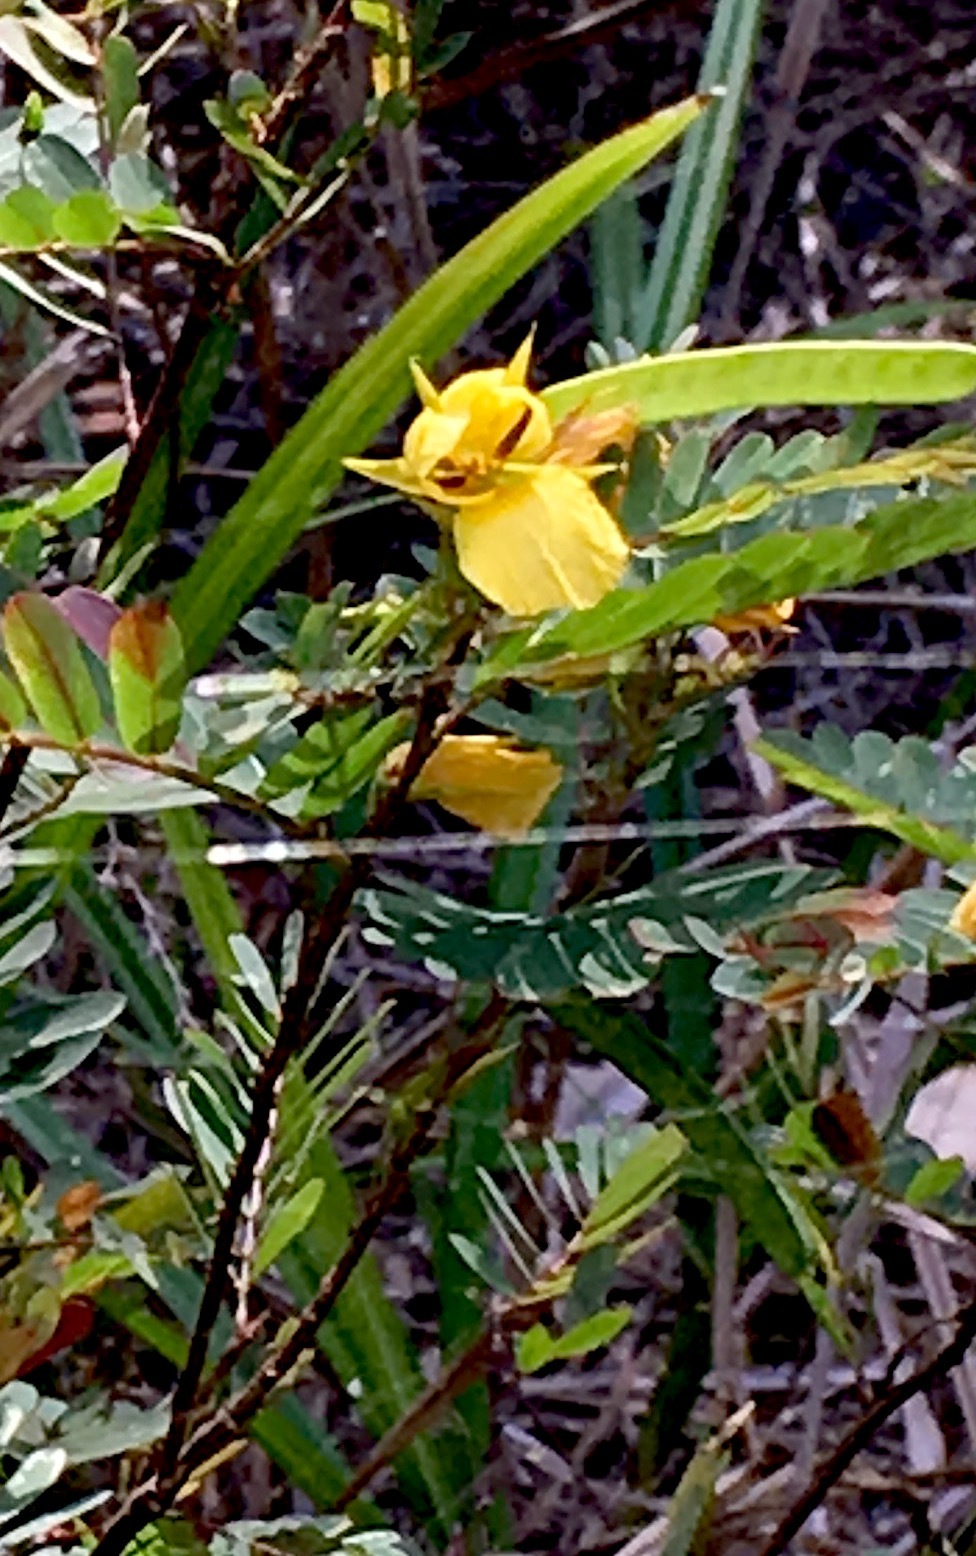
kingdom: Plantae
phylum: Tracheophyta
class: Magnoliopsida
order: Fabales
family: Fabaceae
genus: Chamaecrista
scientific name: Chamaecrista glandulosa
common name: Wild peas
